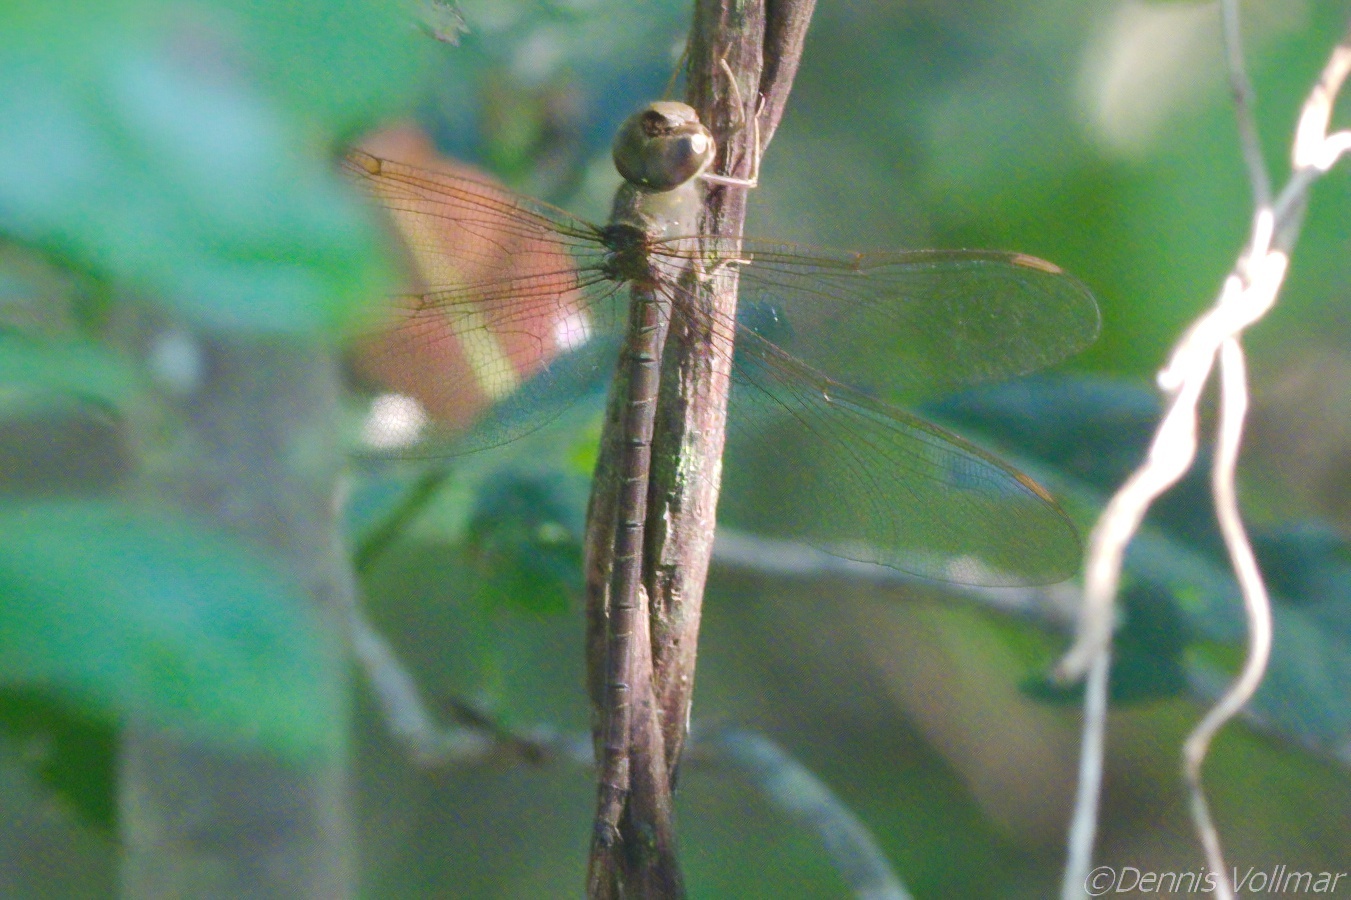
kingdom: Animalia
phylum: Arthropoda
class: Insecta
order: Odonata
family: Aeshnidae
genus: Gynacantha
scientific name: Gynacantha nervosa
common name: Twilight darner
